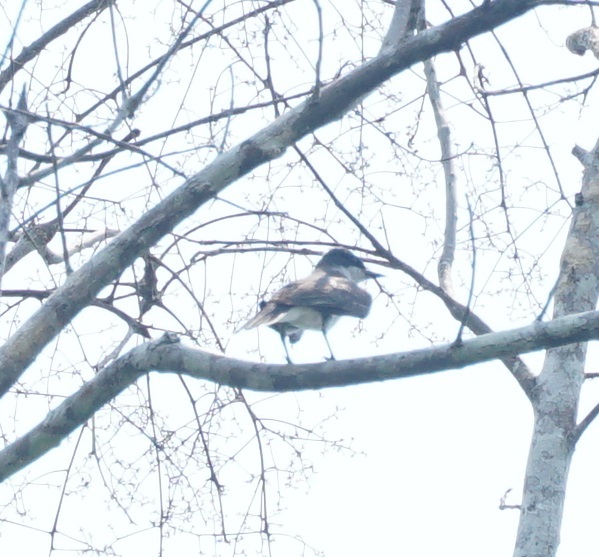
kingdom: Animalia
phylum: Chordata
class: Aves
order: Passeriformes
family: Tyrannidae
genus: Tyrannus
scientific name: Tyrannus tyrannus
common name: Eastern kingbird
